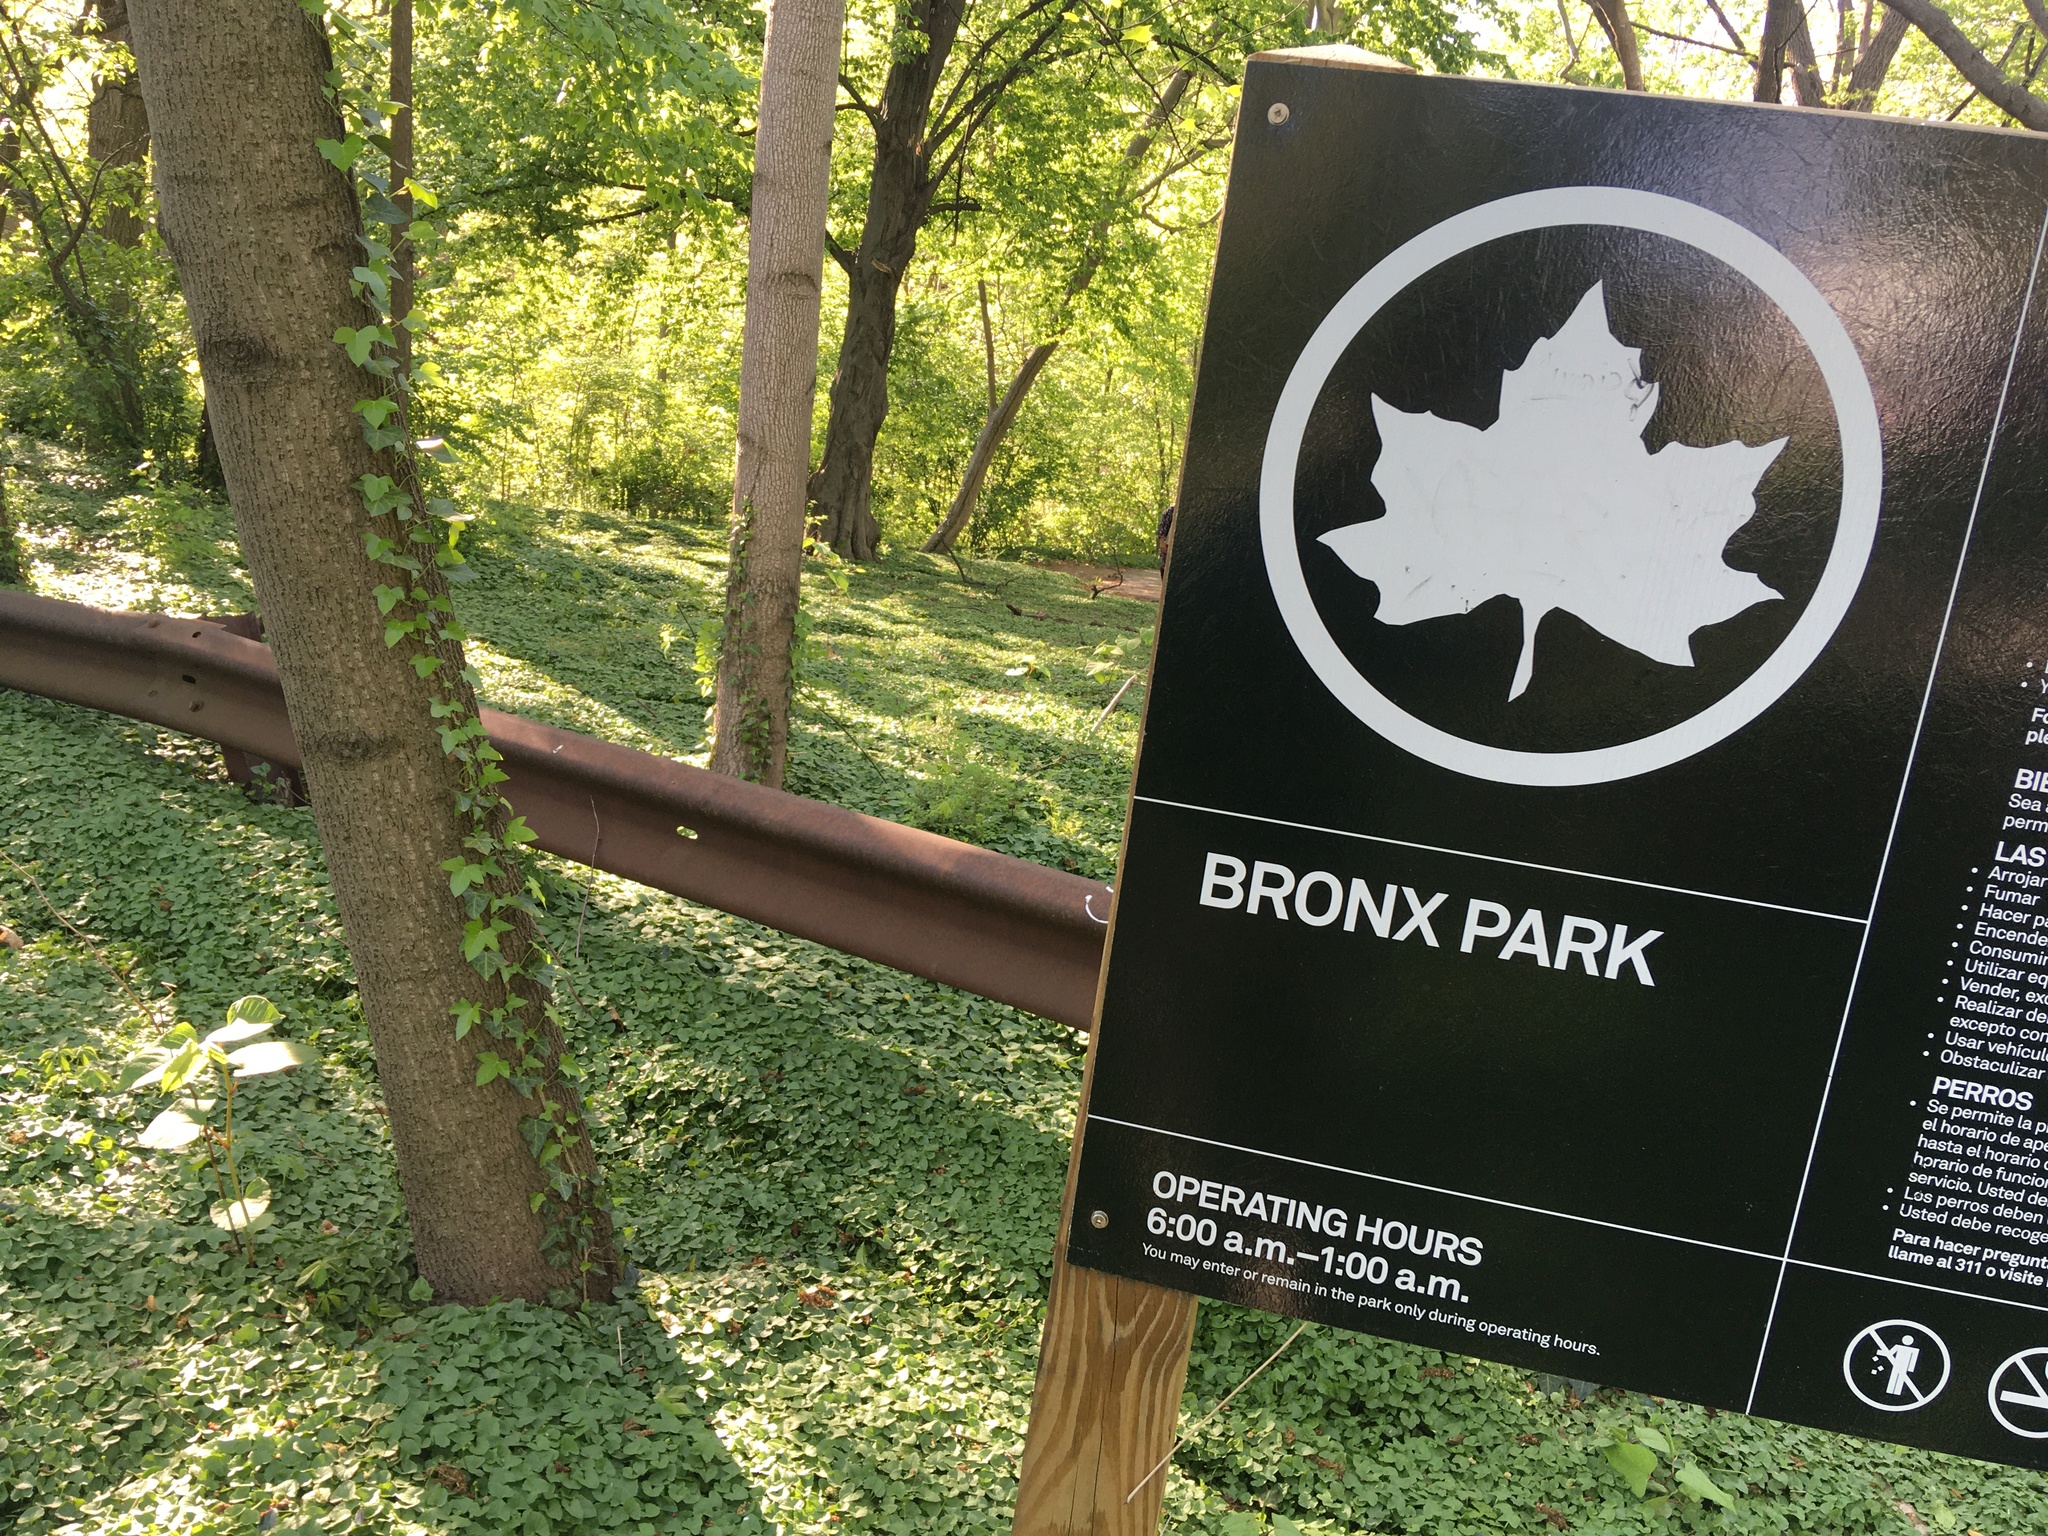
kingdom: Plantae
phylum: Tracheophyta
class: Magnoliopsida
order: Ranunculales
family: Ranunculaceae
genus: Ficaria
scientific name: Ficaria verna
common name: Lesser celandine
